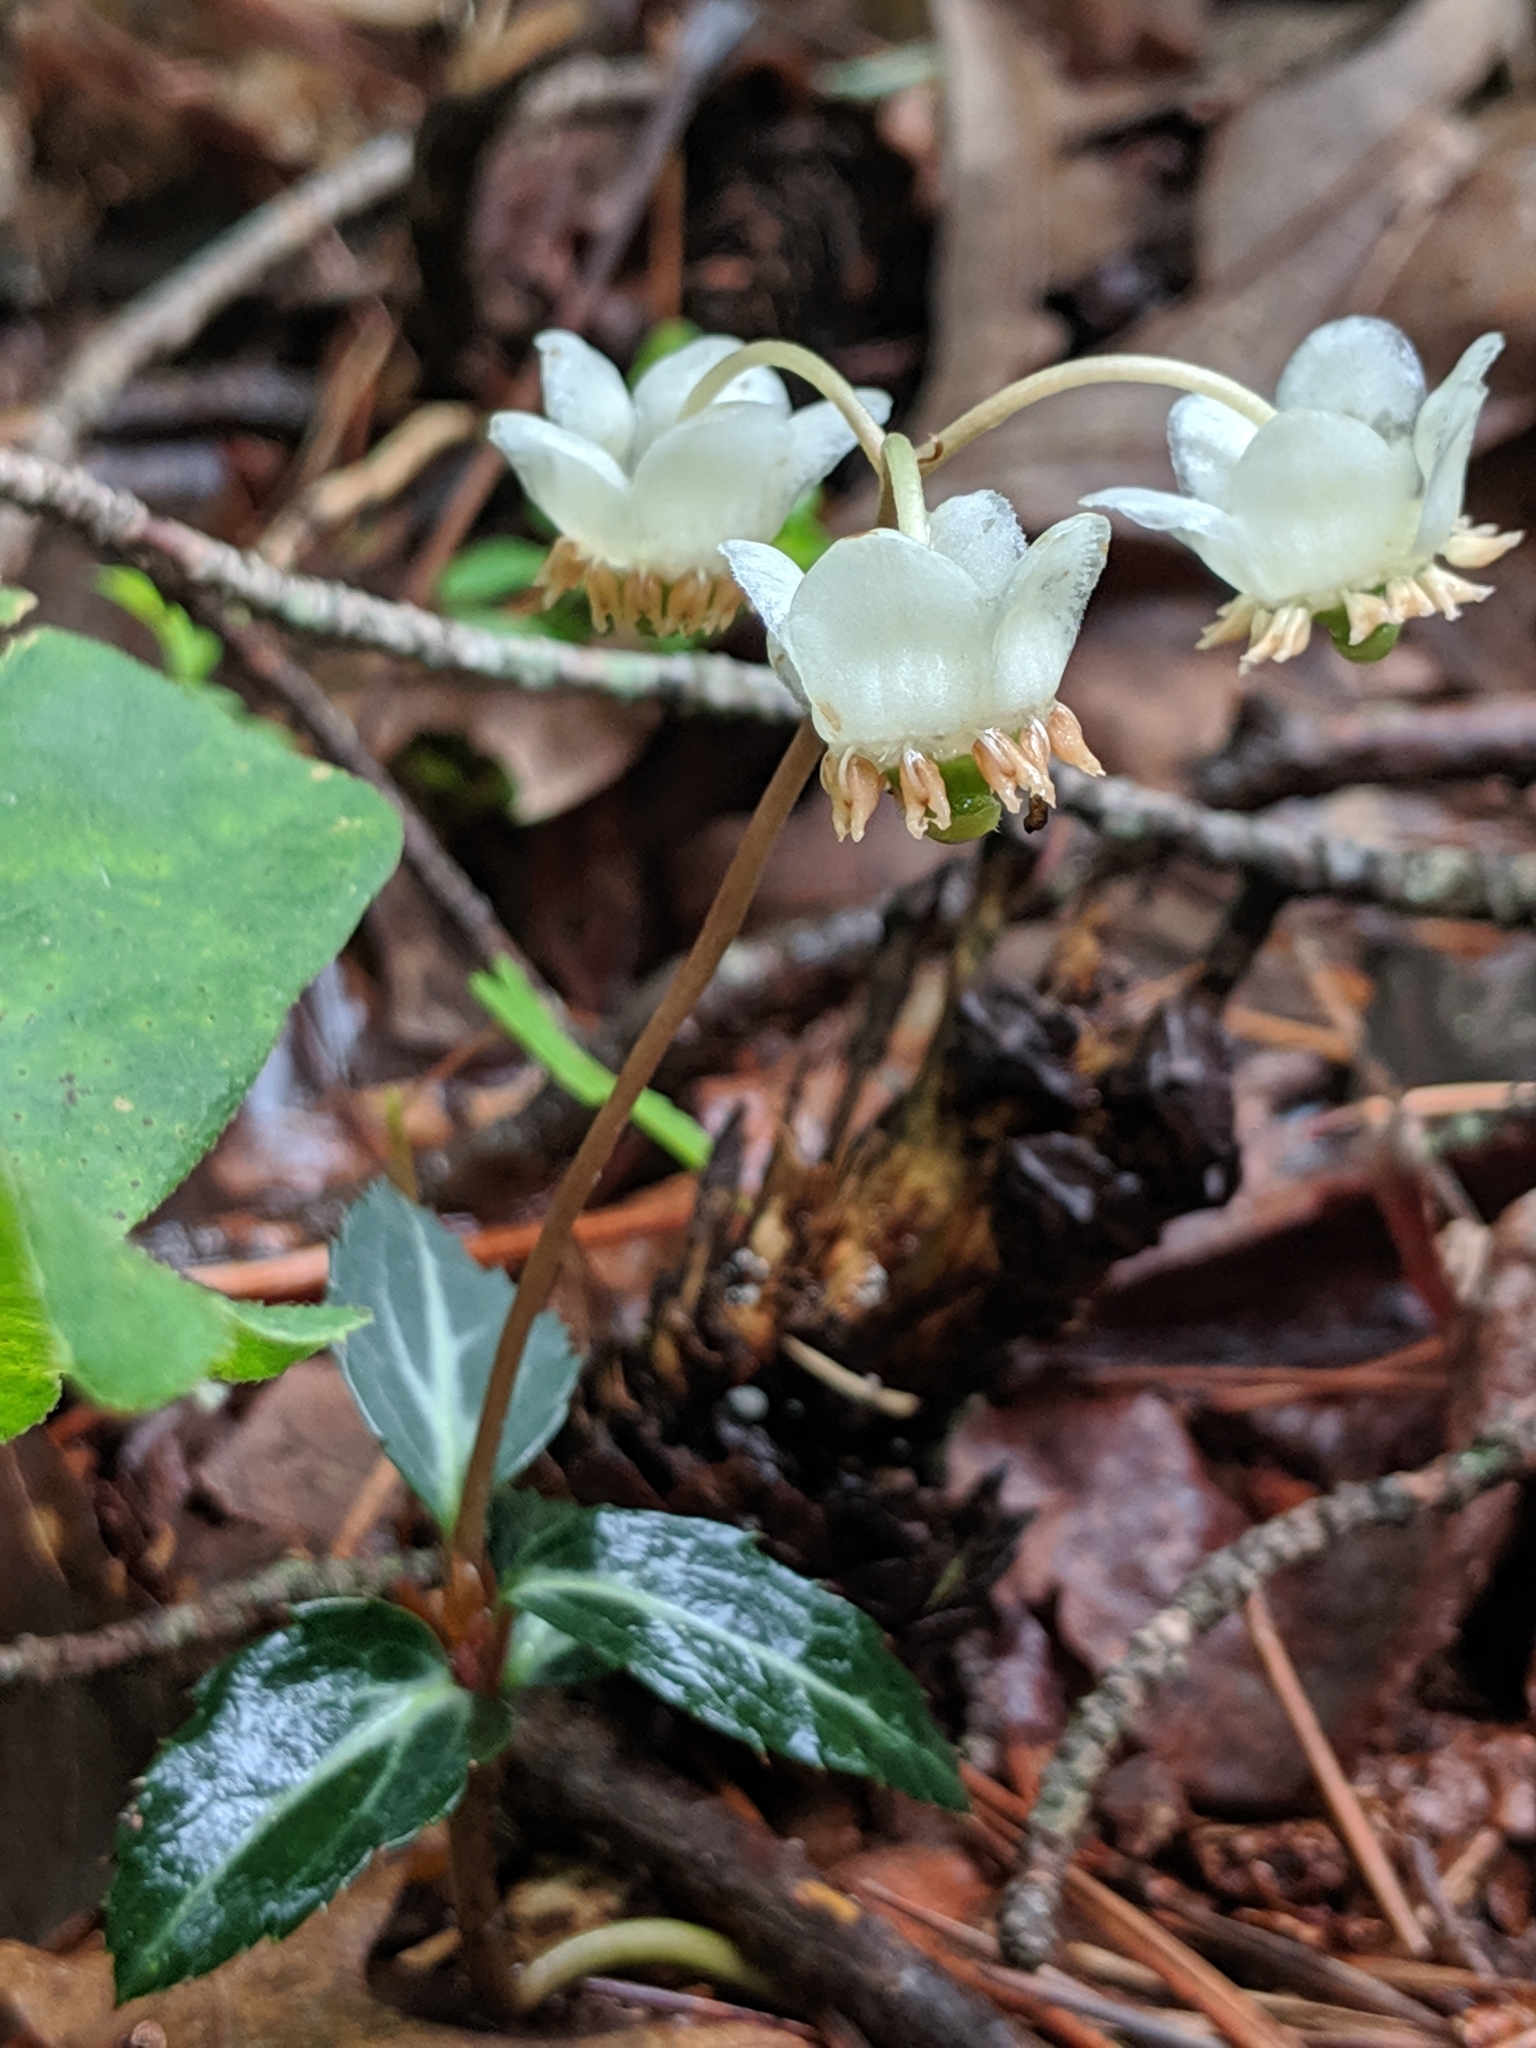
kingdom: Plantae
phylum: Tracheophyta
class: Magnoliopsida
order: Ericales
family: Ericaceae
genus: Chimaphila
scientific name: Chimaphila maculata
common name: Spotted pipsissewa
